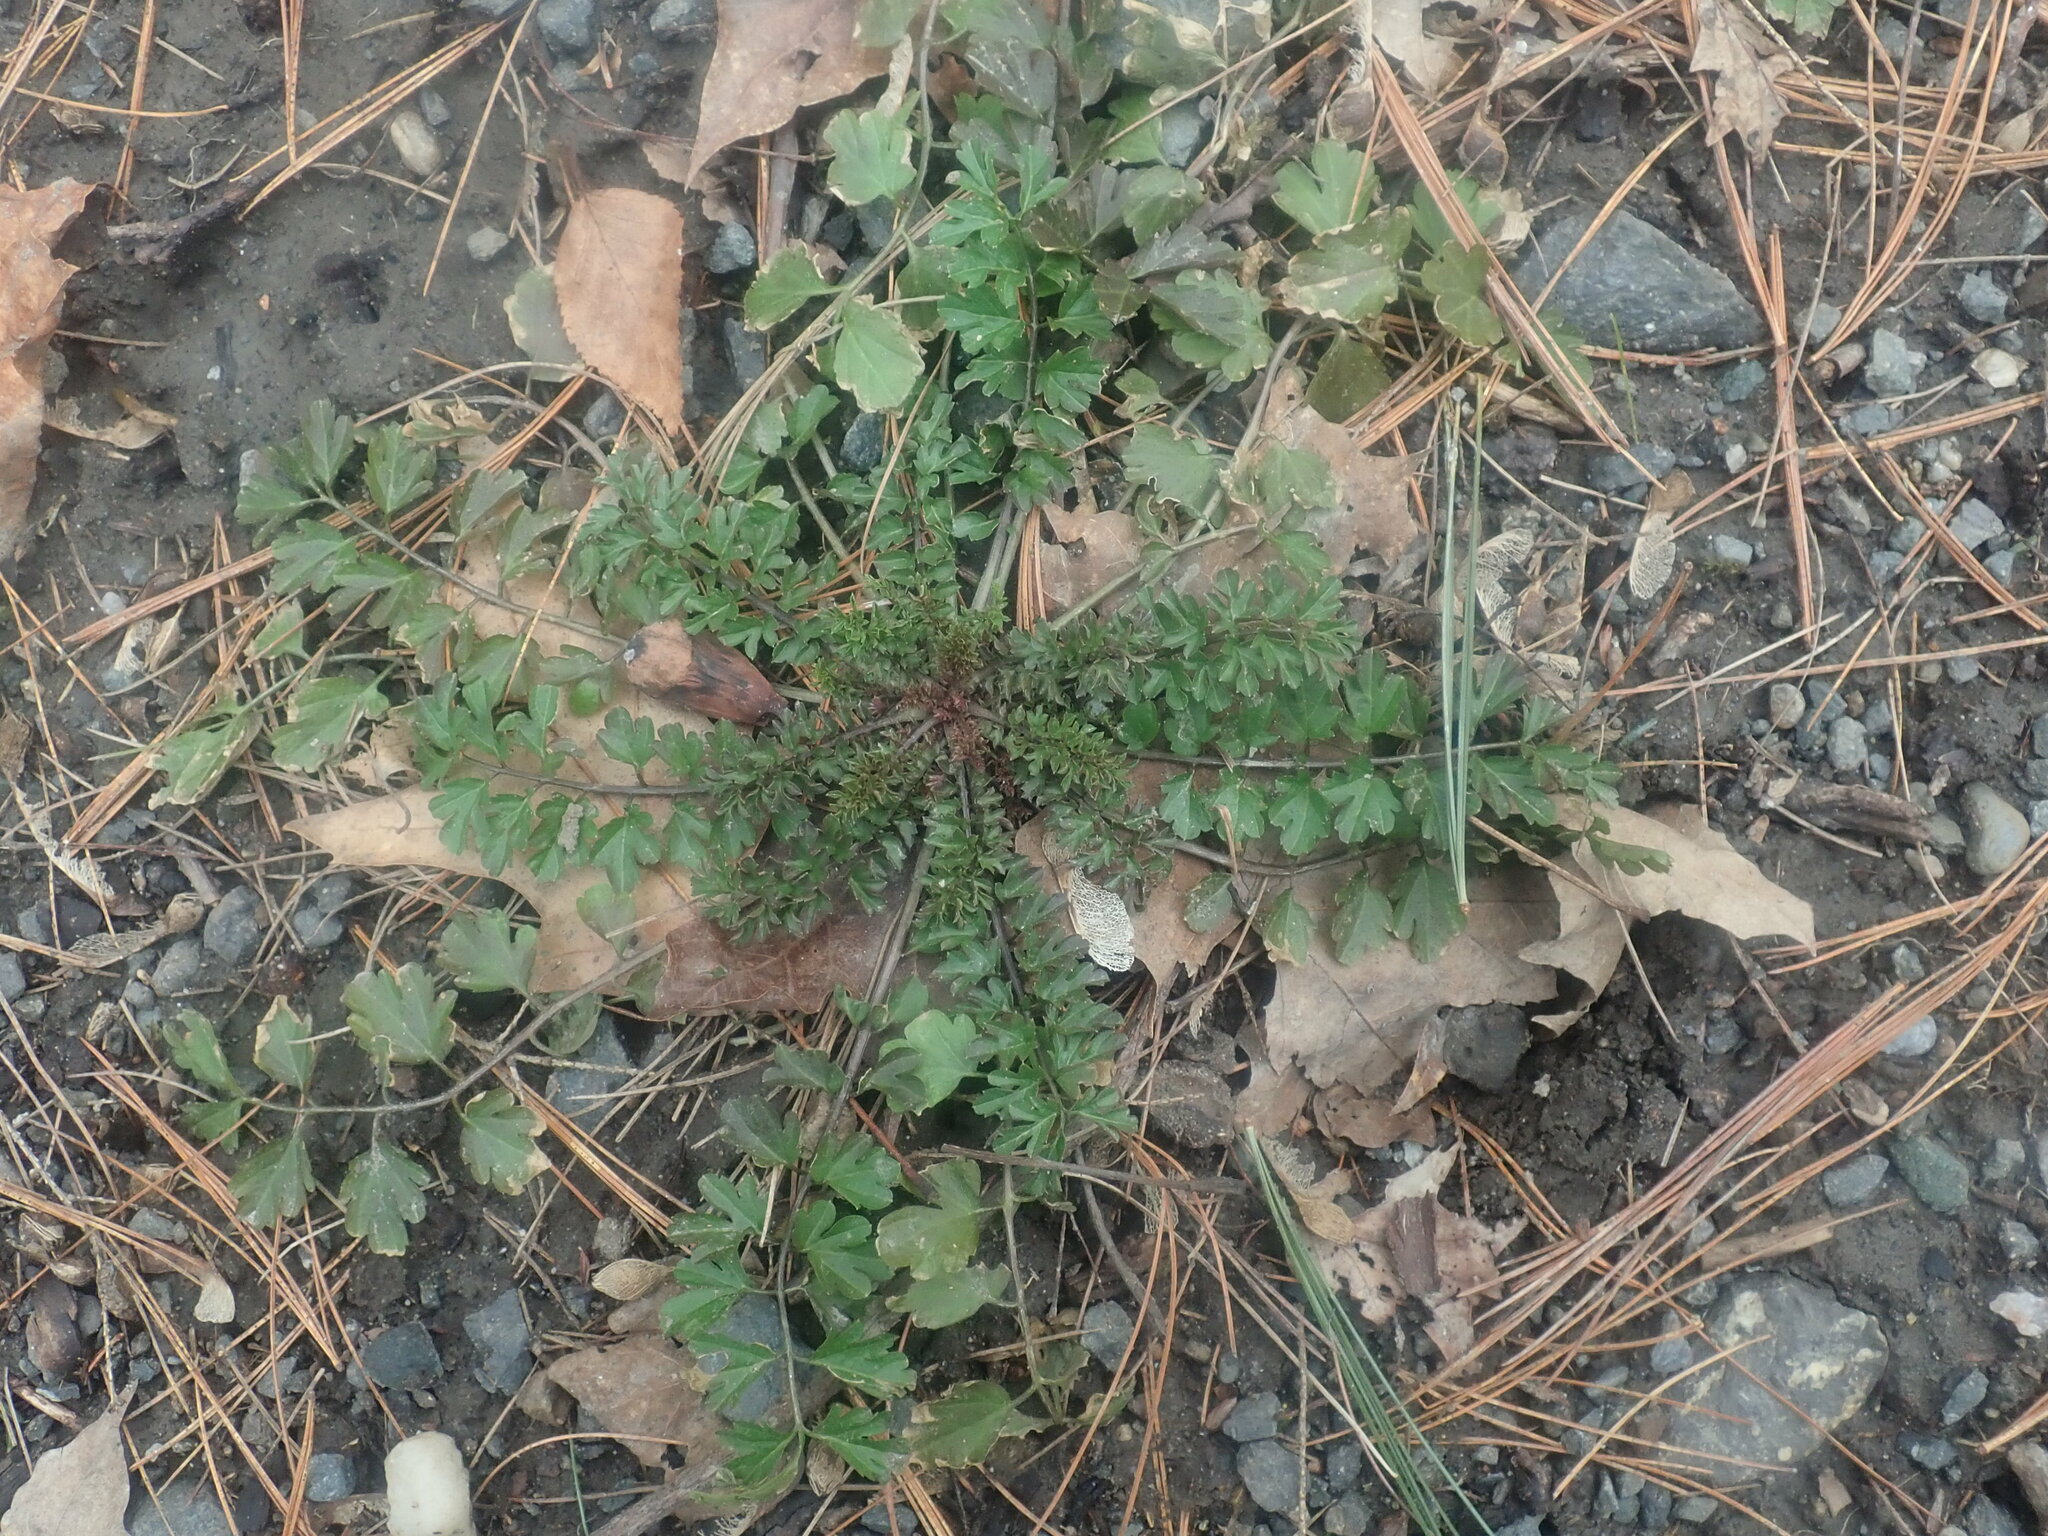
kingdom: Plantae
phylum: Tracheophyta
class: Magnoliopsida
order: Brassicales
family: Brassicaceae
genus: Cardamine
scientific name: Cardamine impatiens
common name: Narrow-leaved bitter-cress
